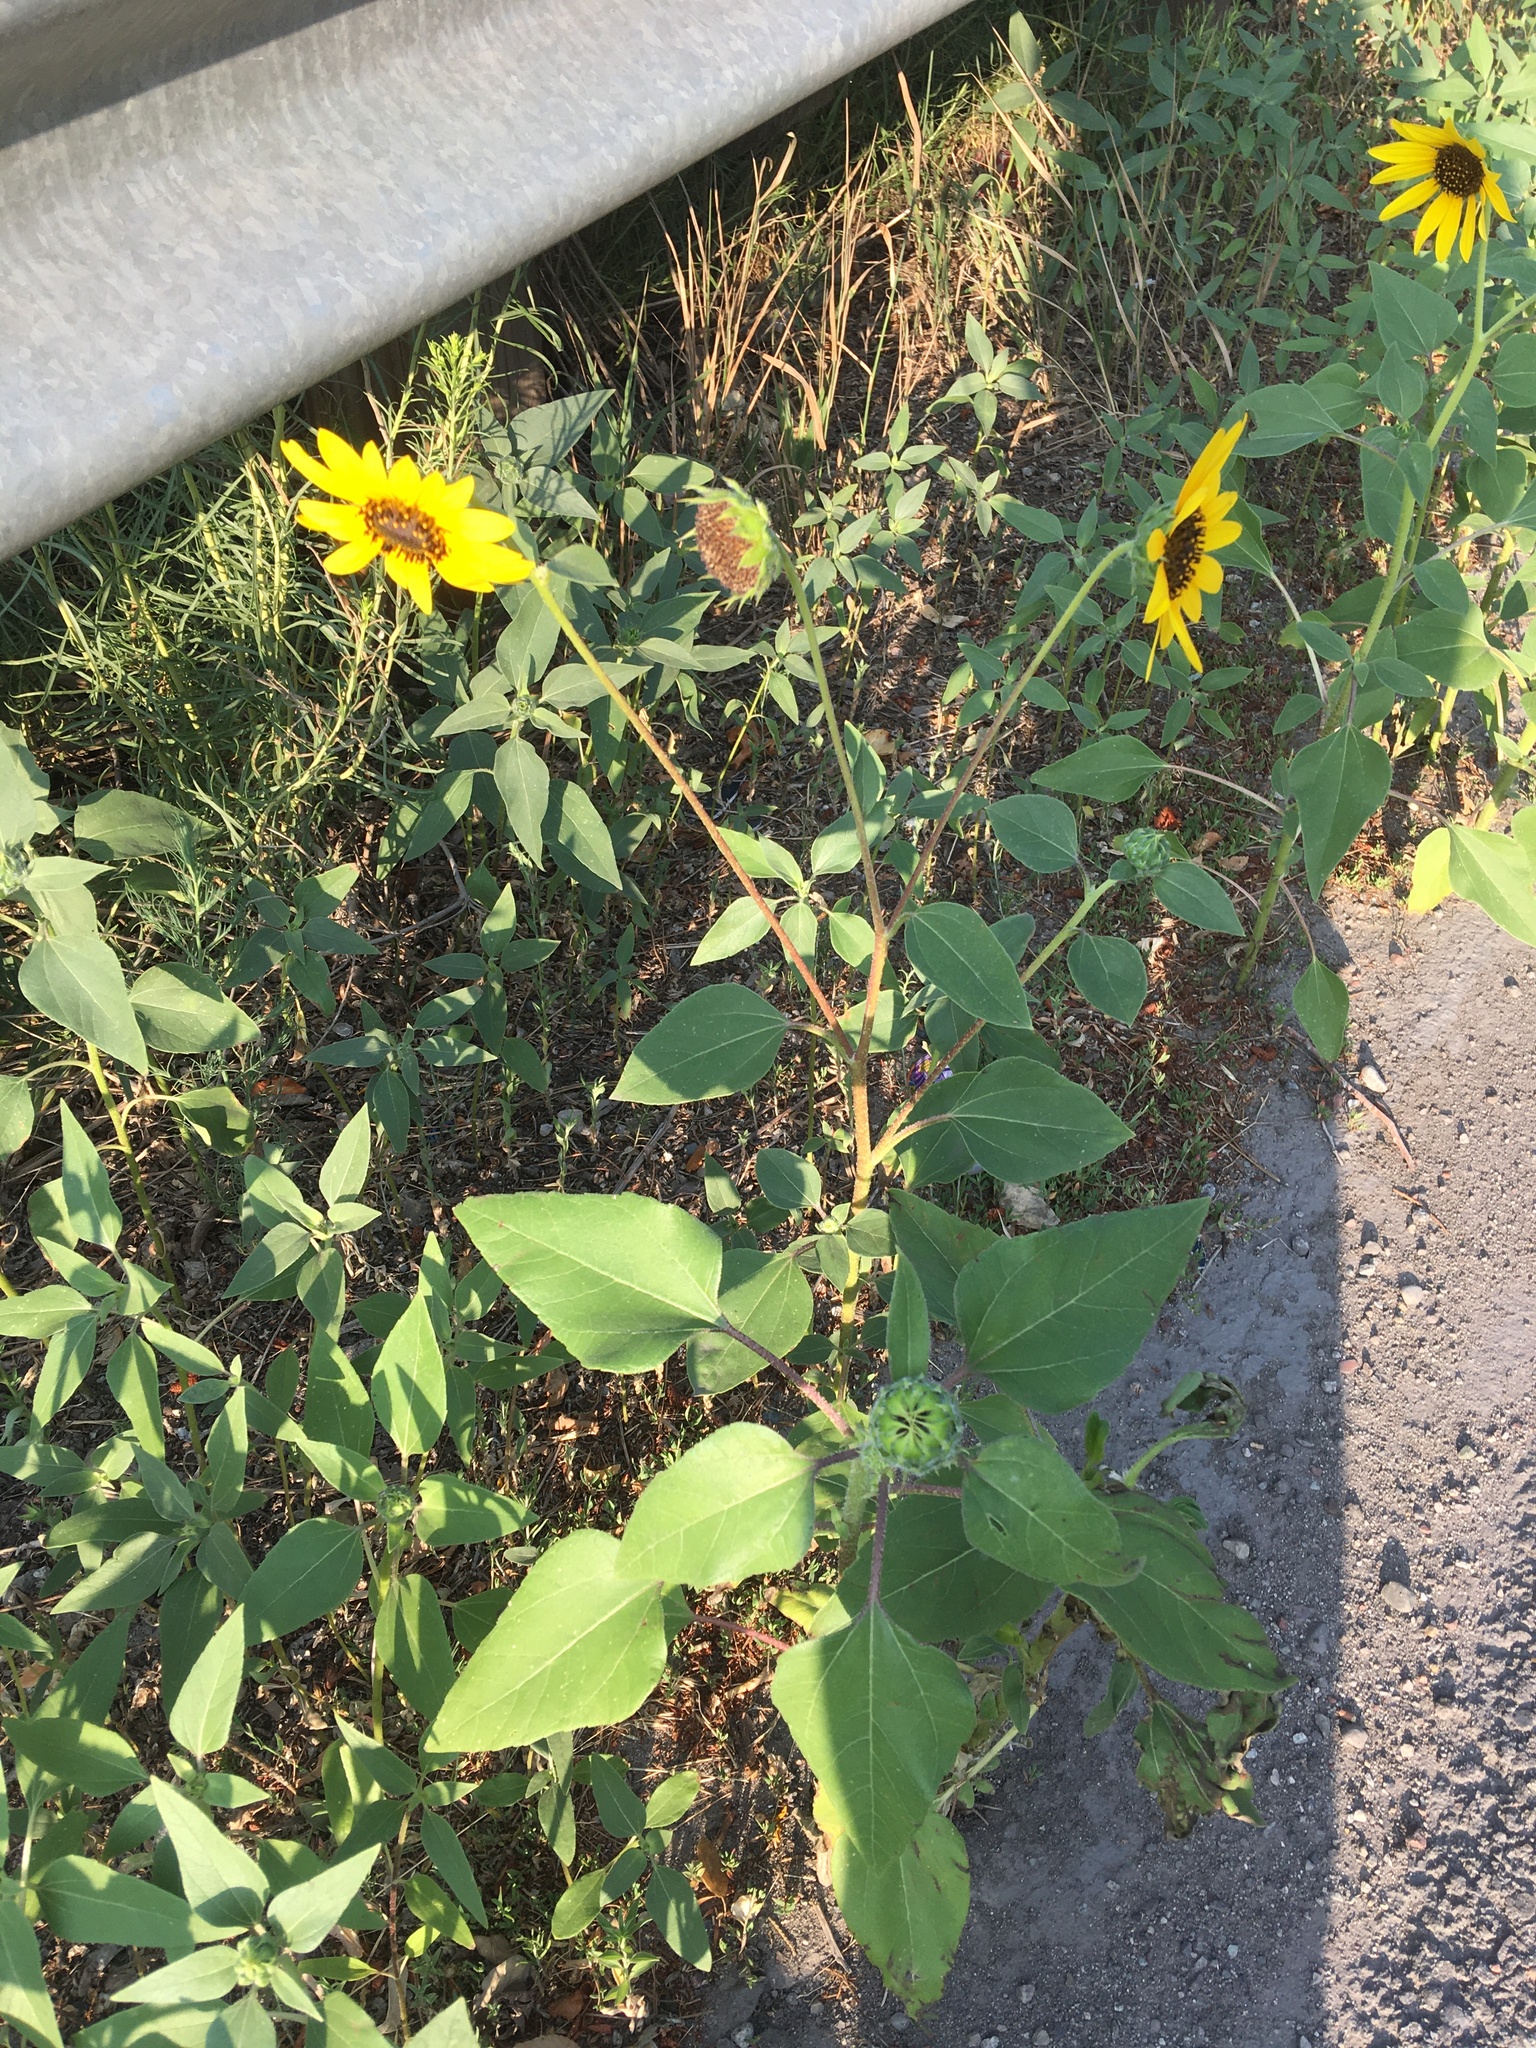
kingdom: Plantae
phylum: Tracheophyta
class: Magnoliopsida
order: Asterales
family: Asteraceae
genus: Helianthus
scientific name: Helianthus annuus
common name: Sunflower
